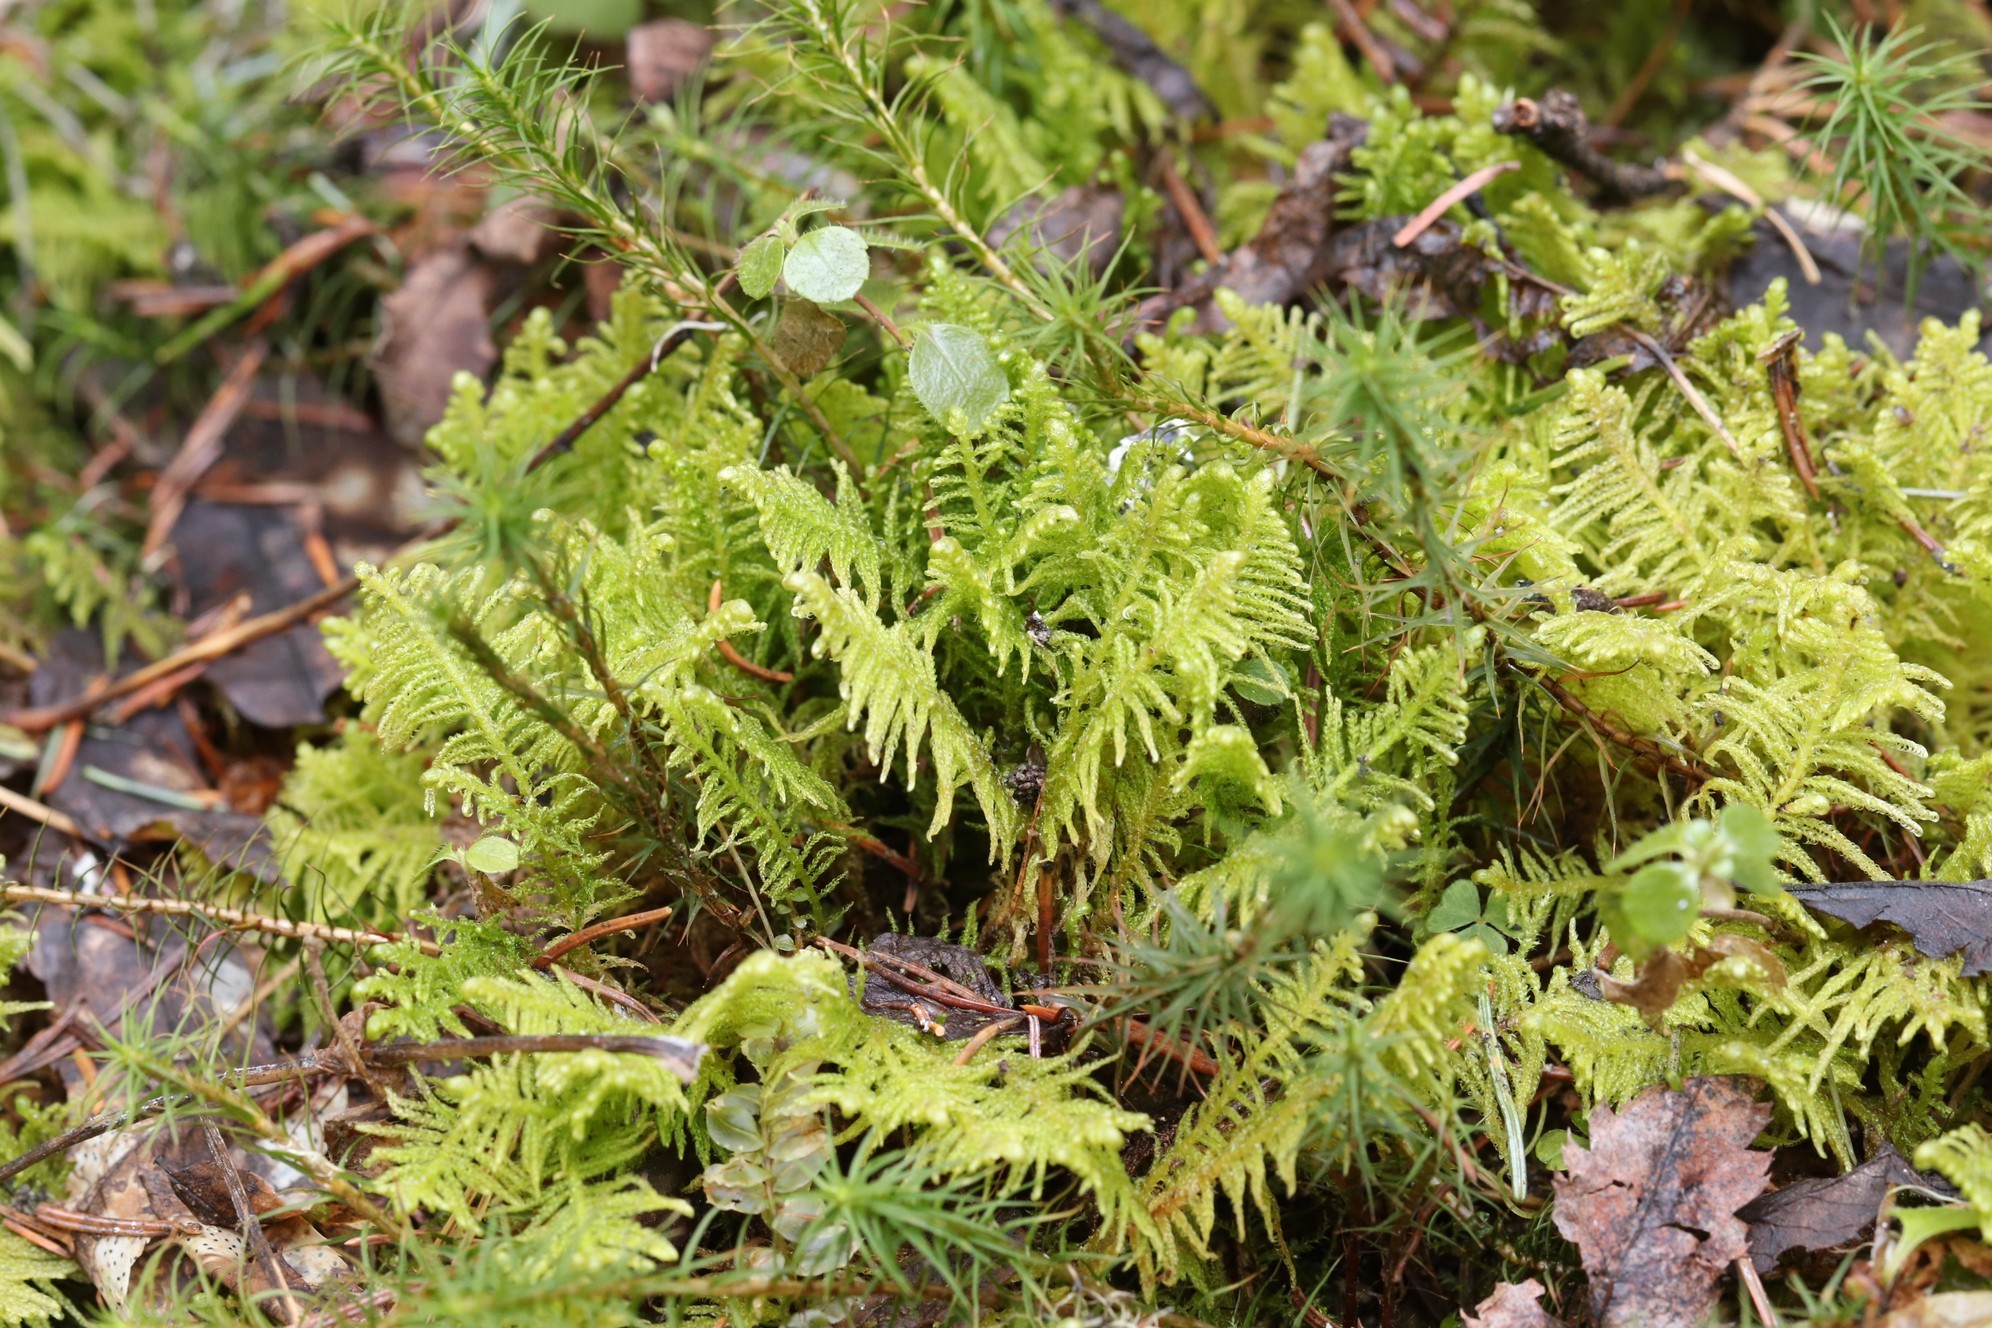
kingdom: Plantae
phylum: Bryophyta
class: Bryopsida
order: Hypnales
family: Pylaisiaceae
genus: Ptilium
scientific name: Ptilium crista-castrensis
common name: Knight's plume moss
